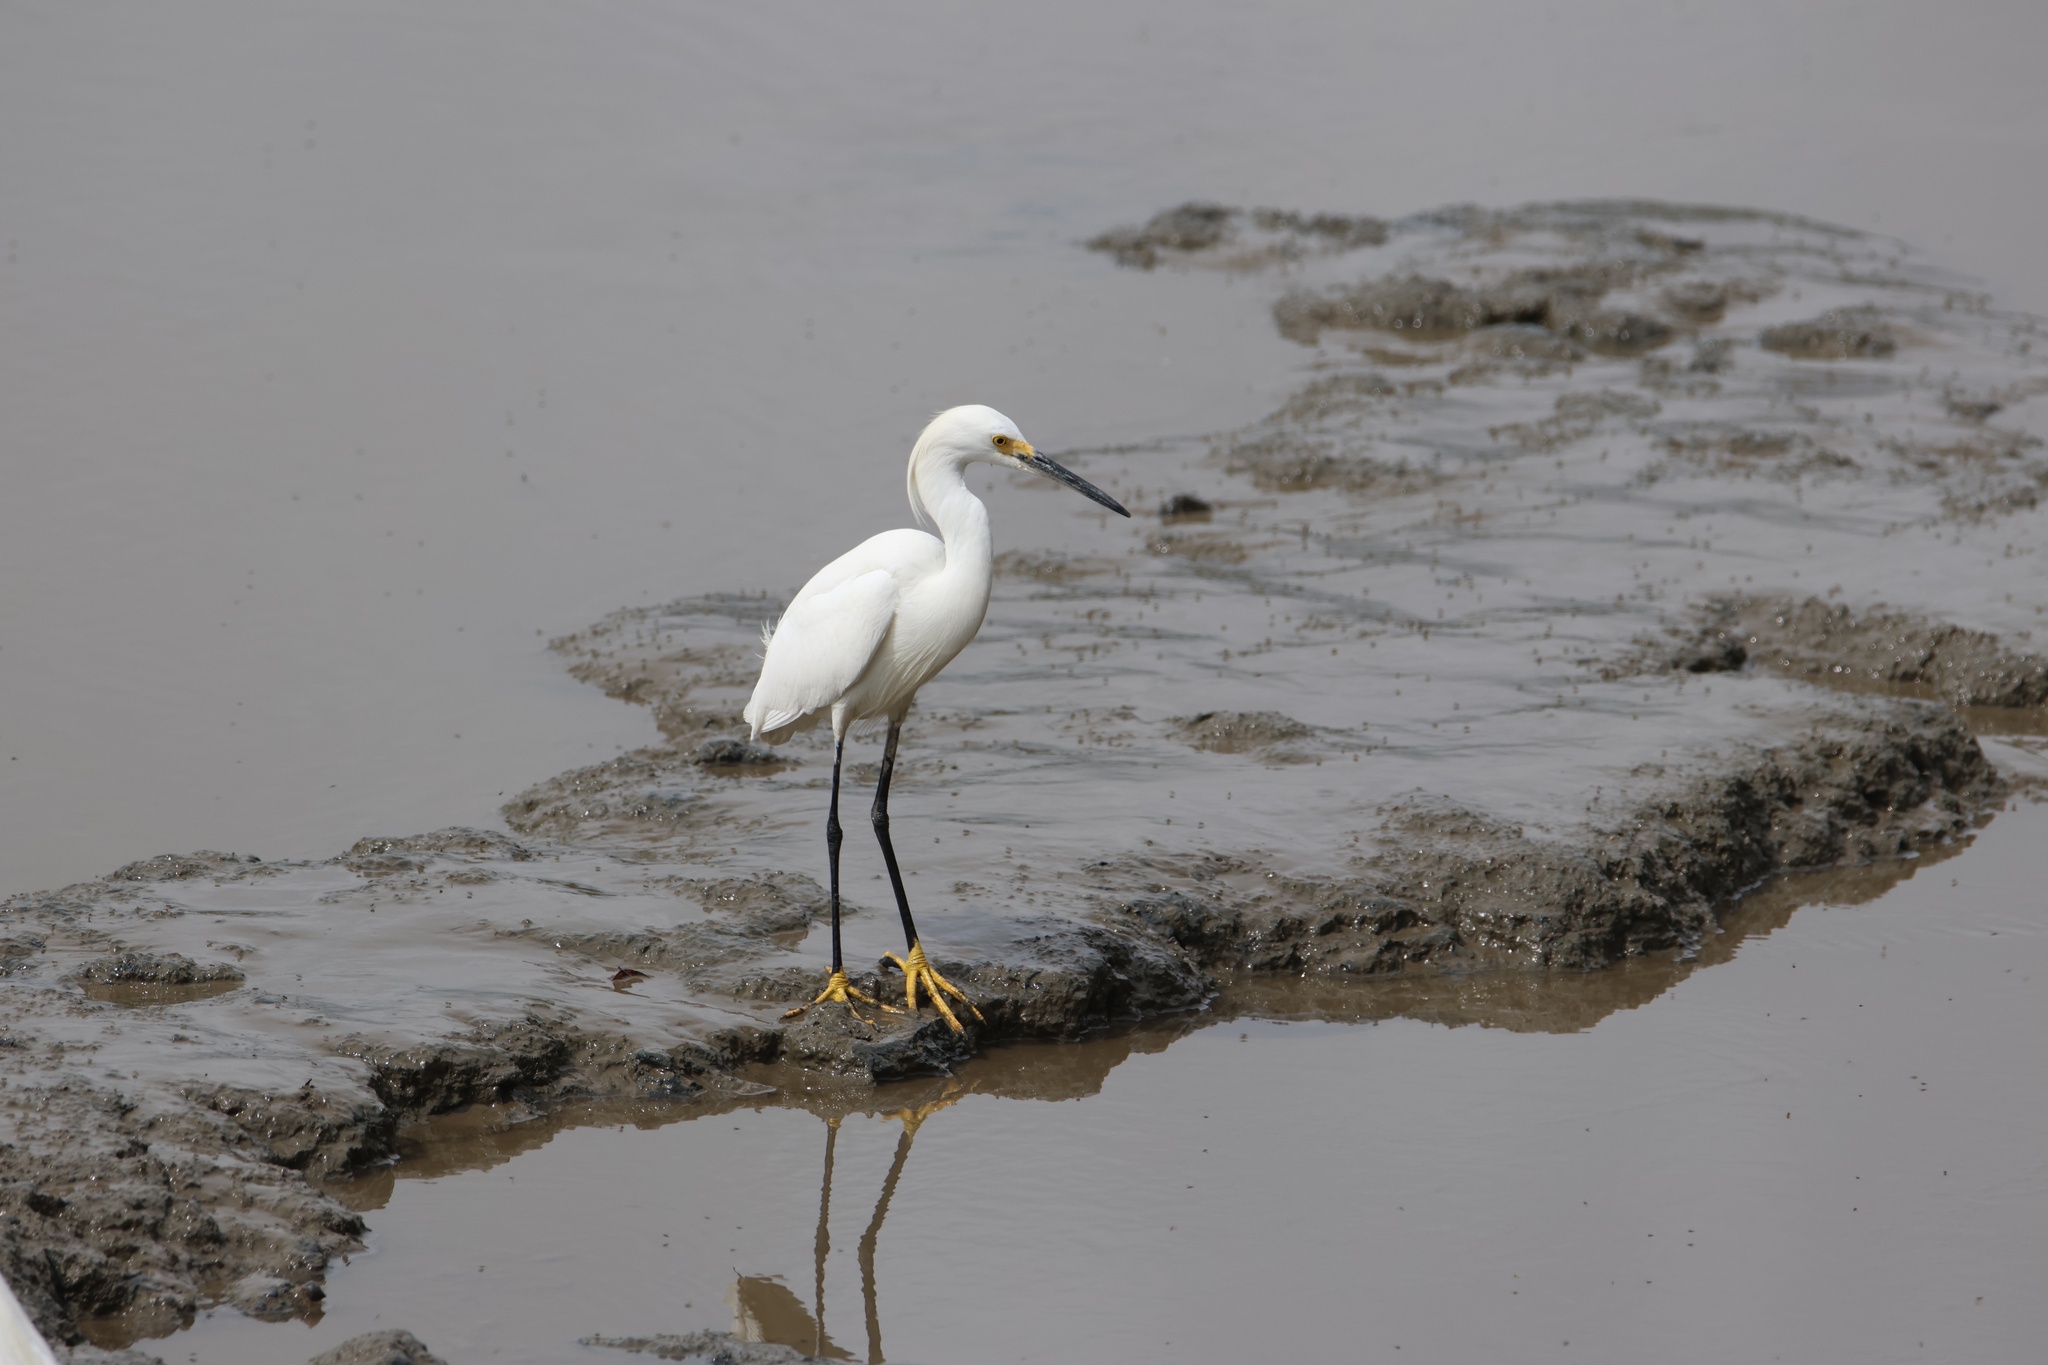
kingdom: Animalia
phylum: Chordata
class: Aves
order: Pelecaniformes
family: Ardeidae
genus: Egretta
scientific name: Egretta thula
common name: Snowy egret
